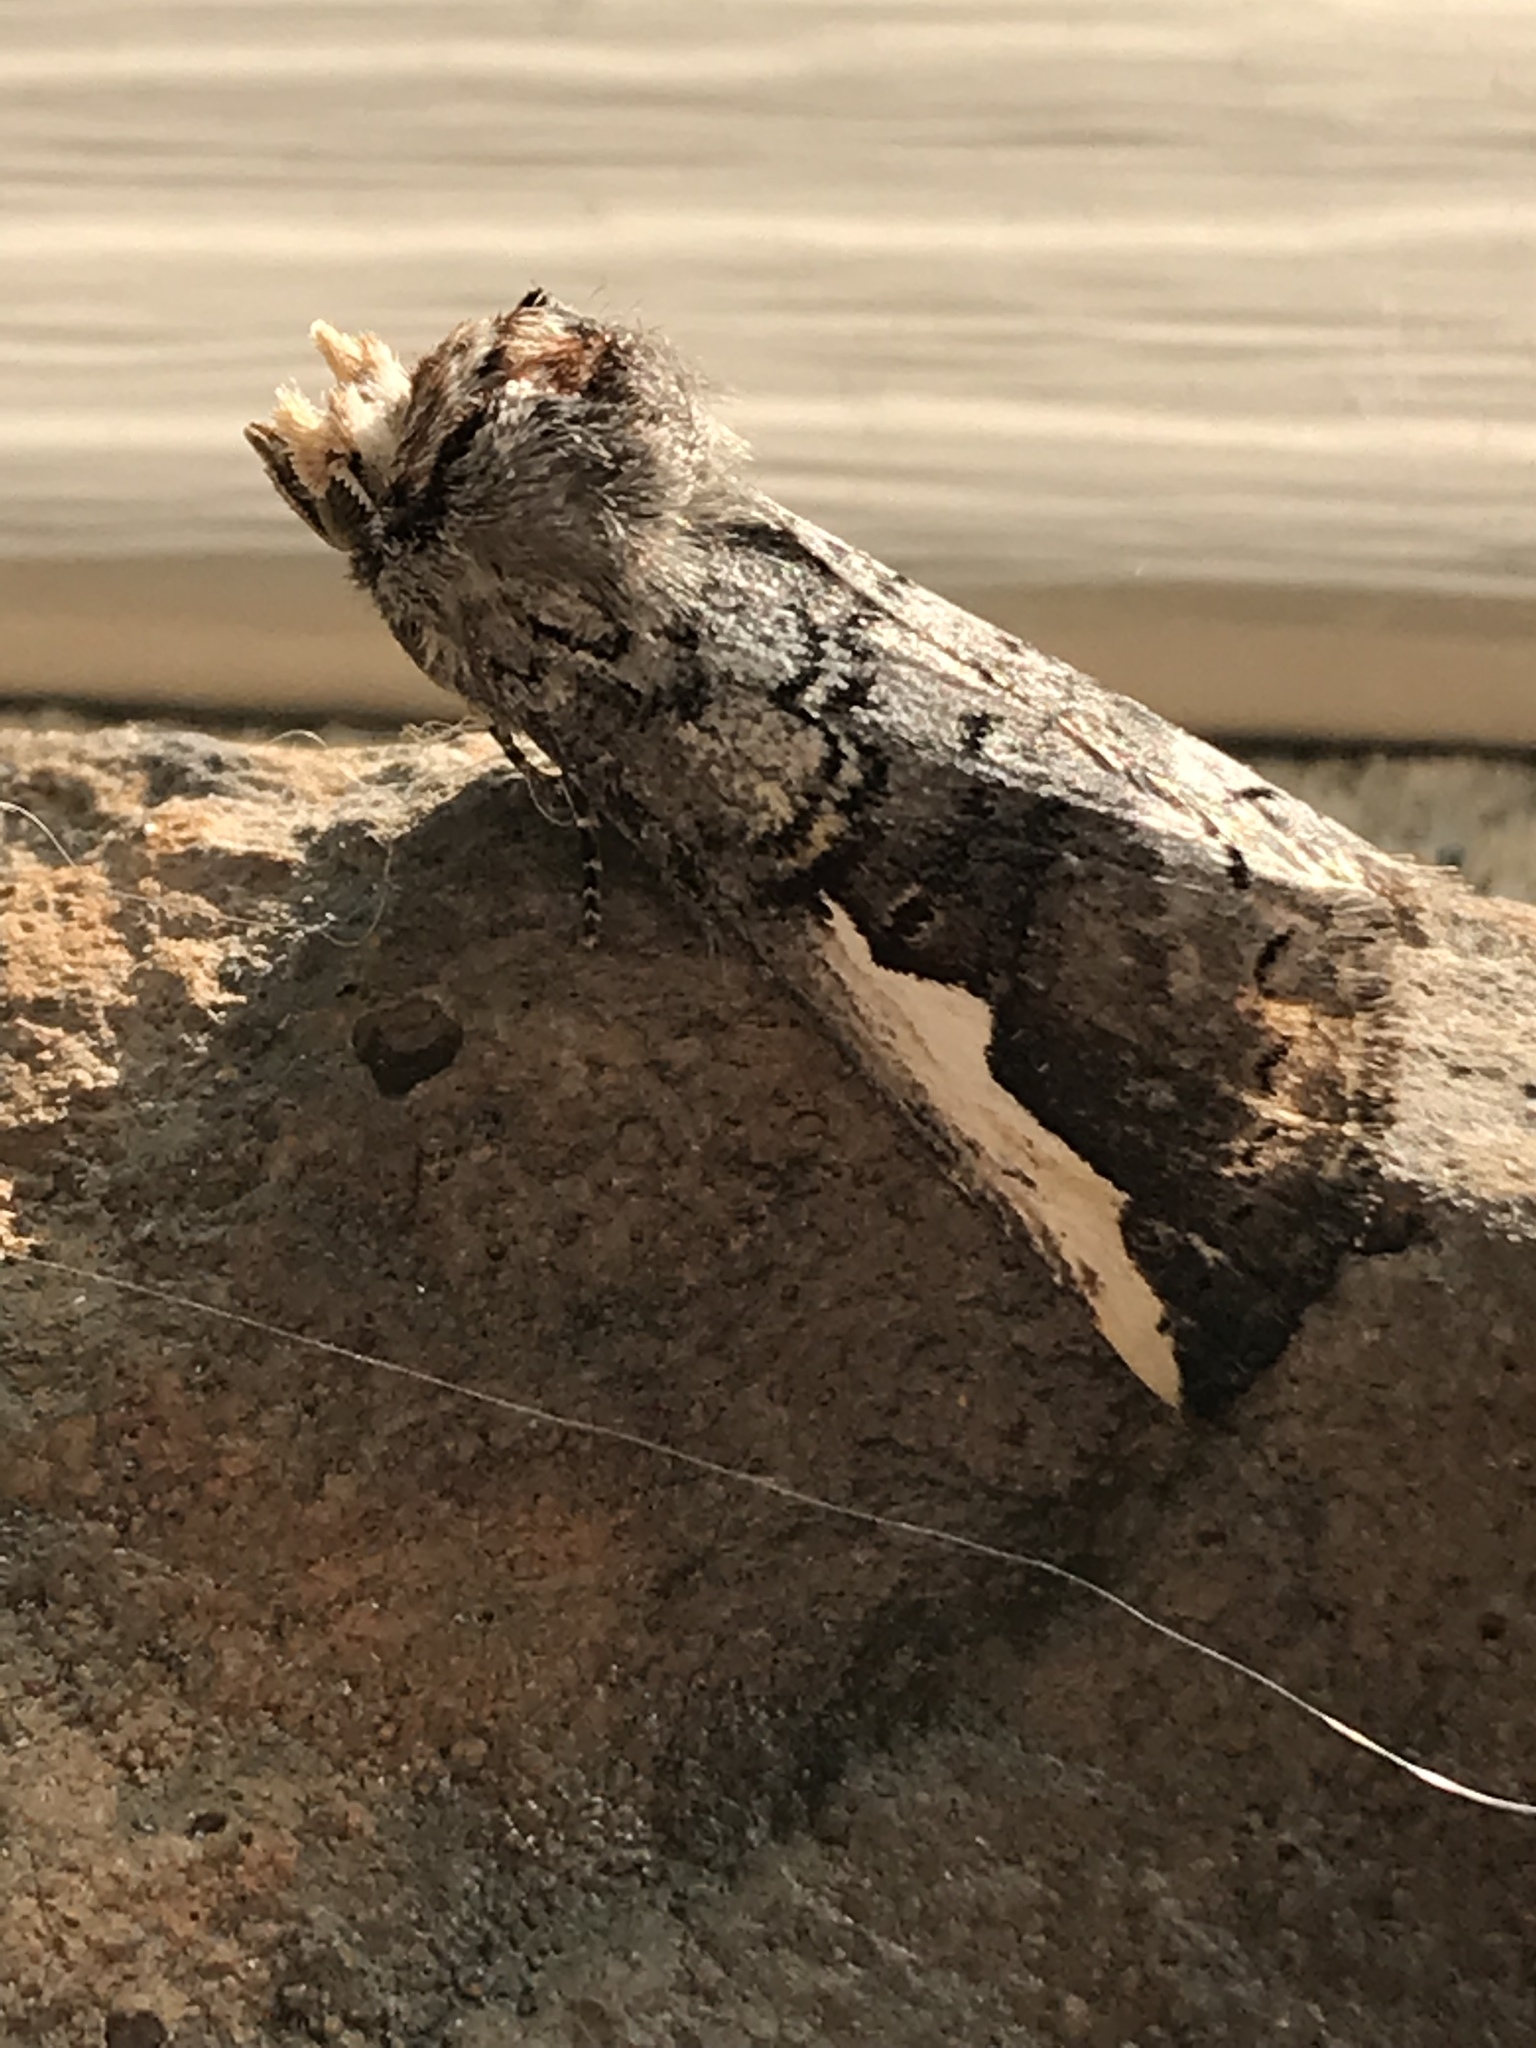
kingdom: Animalia
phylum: Arthropoda
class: Insecta
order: Lepidoptera
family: Notodontidae
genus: Symmerista
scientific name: Symmerista
